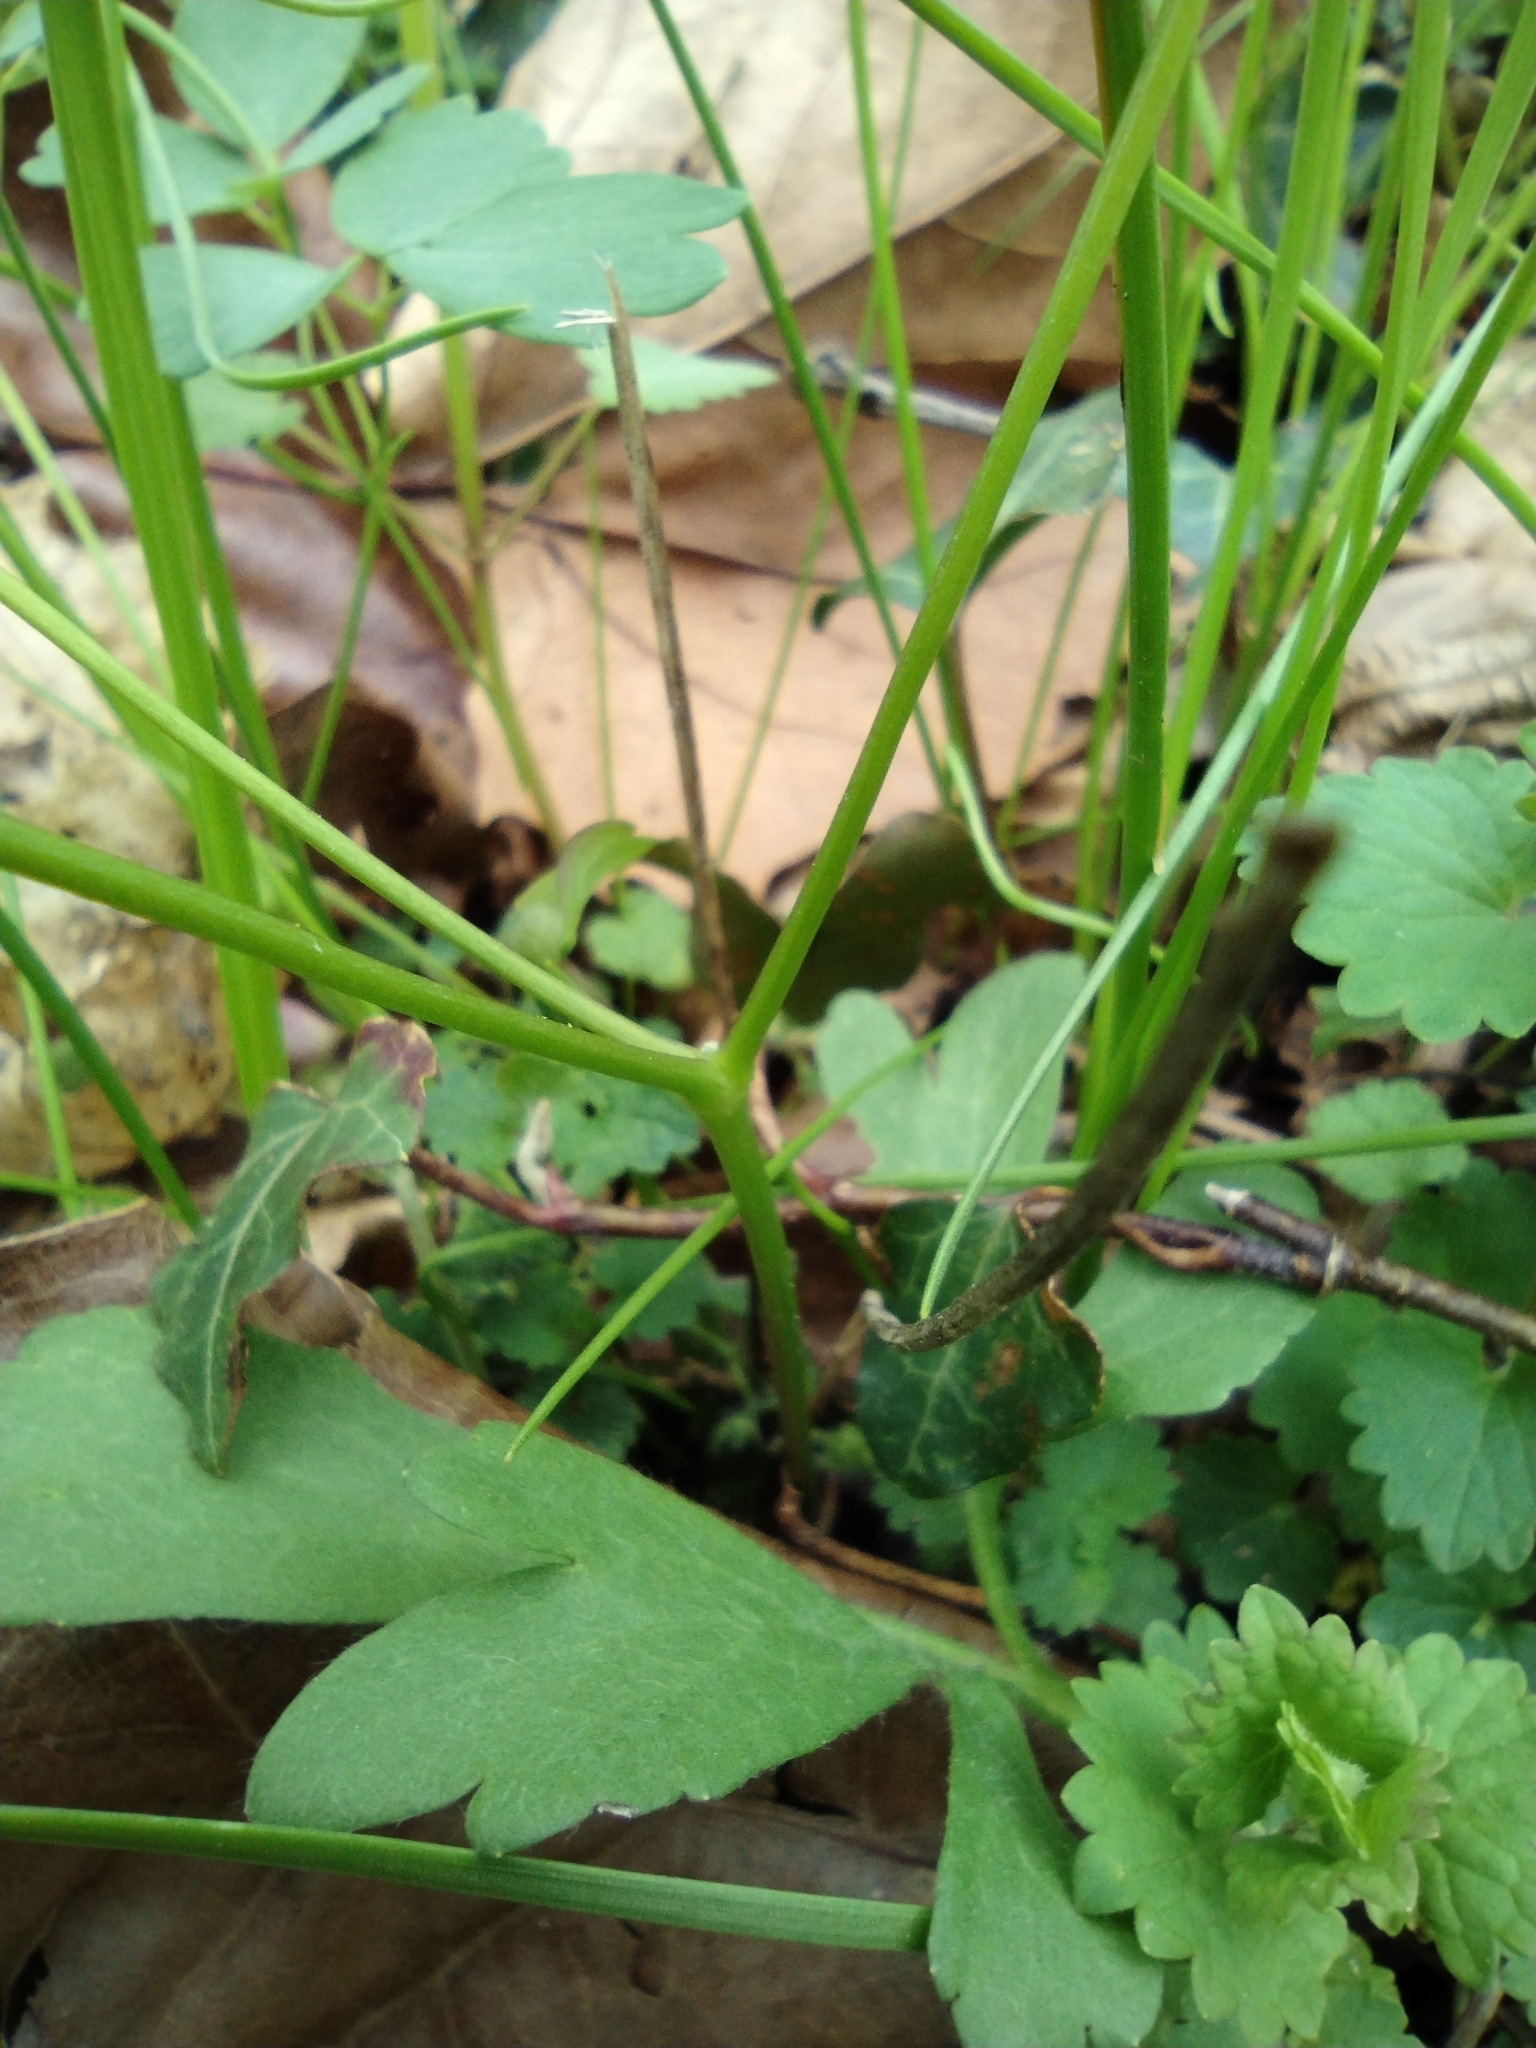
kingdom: Plantae
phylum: Tracheophyta
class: Magnoliopsida
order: Ranunculales
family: Ranunculaceae
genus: Thalictrum
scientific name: Thalictrum thalictroides
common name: Rue-anemone
